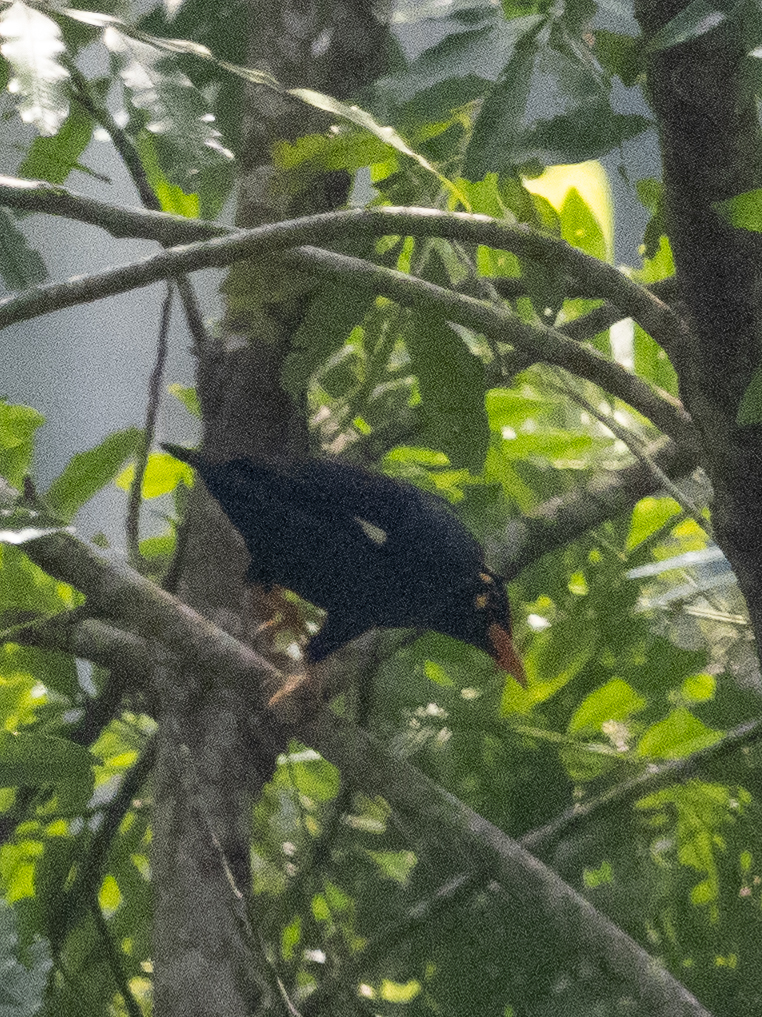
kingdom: Animalia
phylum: Chordata
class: Aves
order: Passeriformes
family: Sturnidae
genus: Gracula
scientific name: Gracula indica
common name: Southern hill myna
